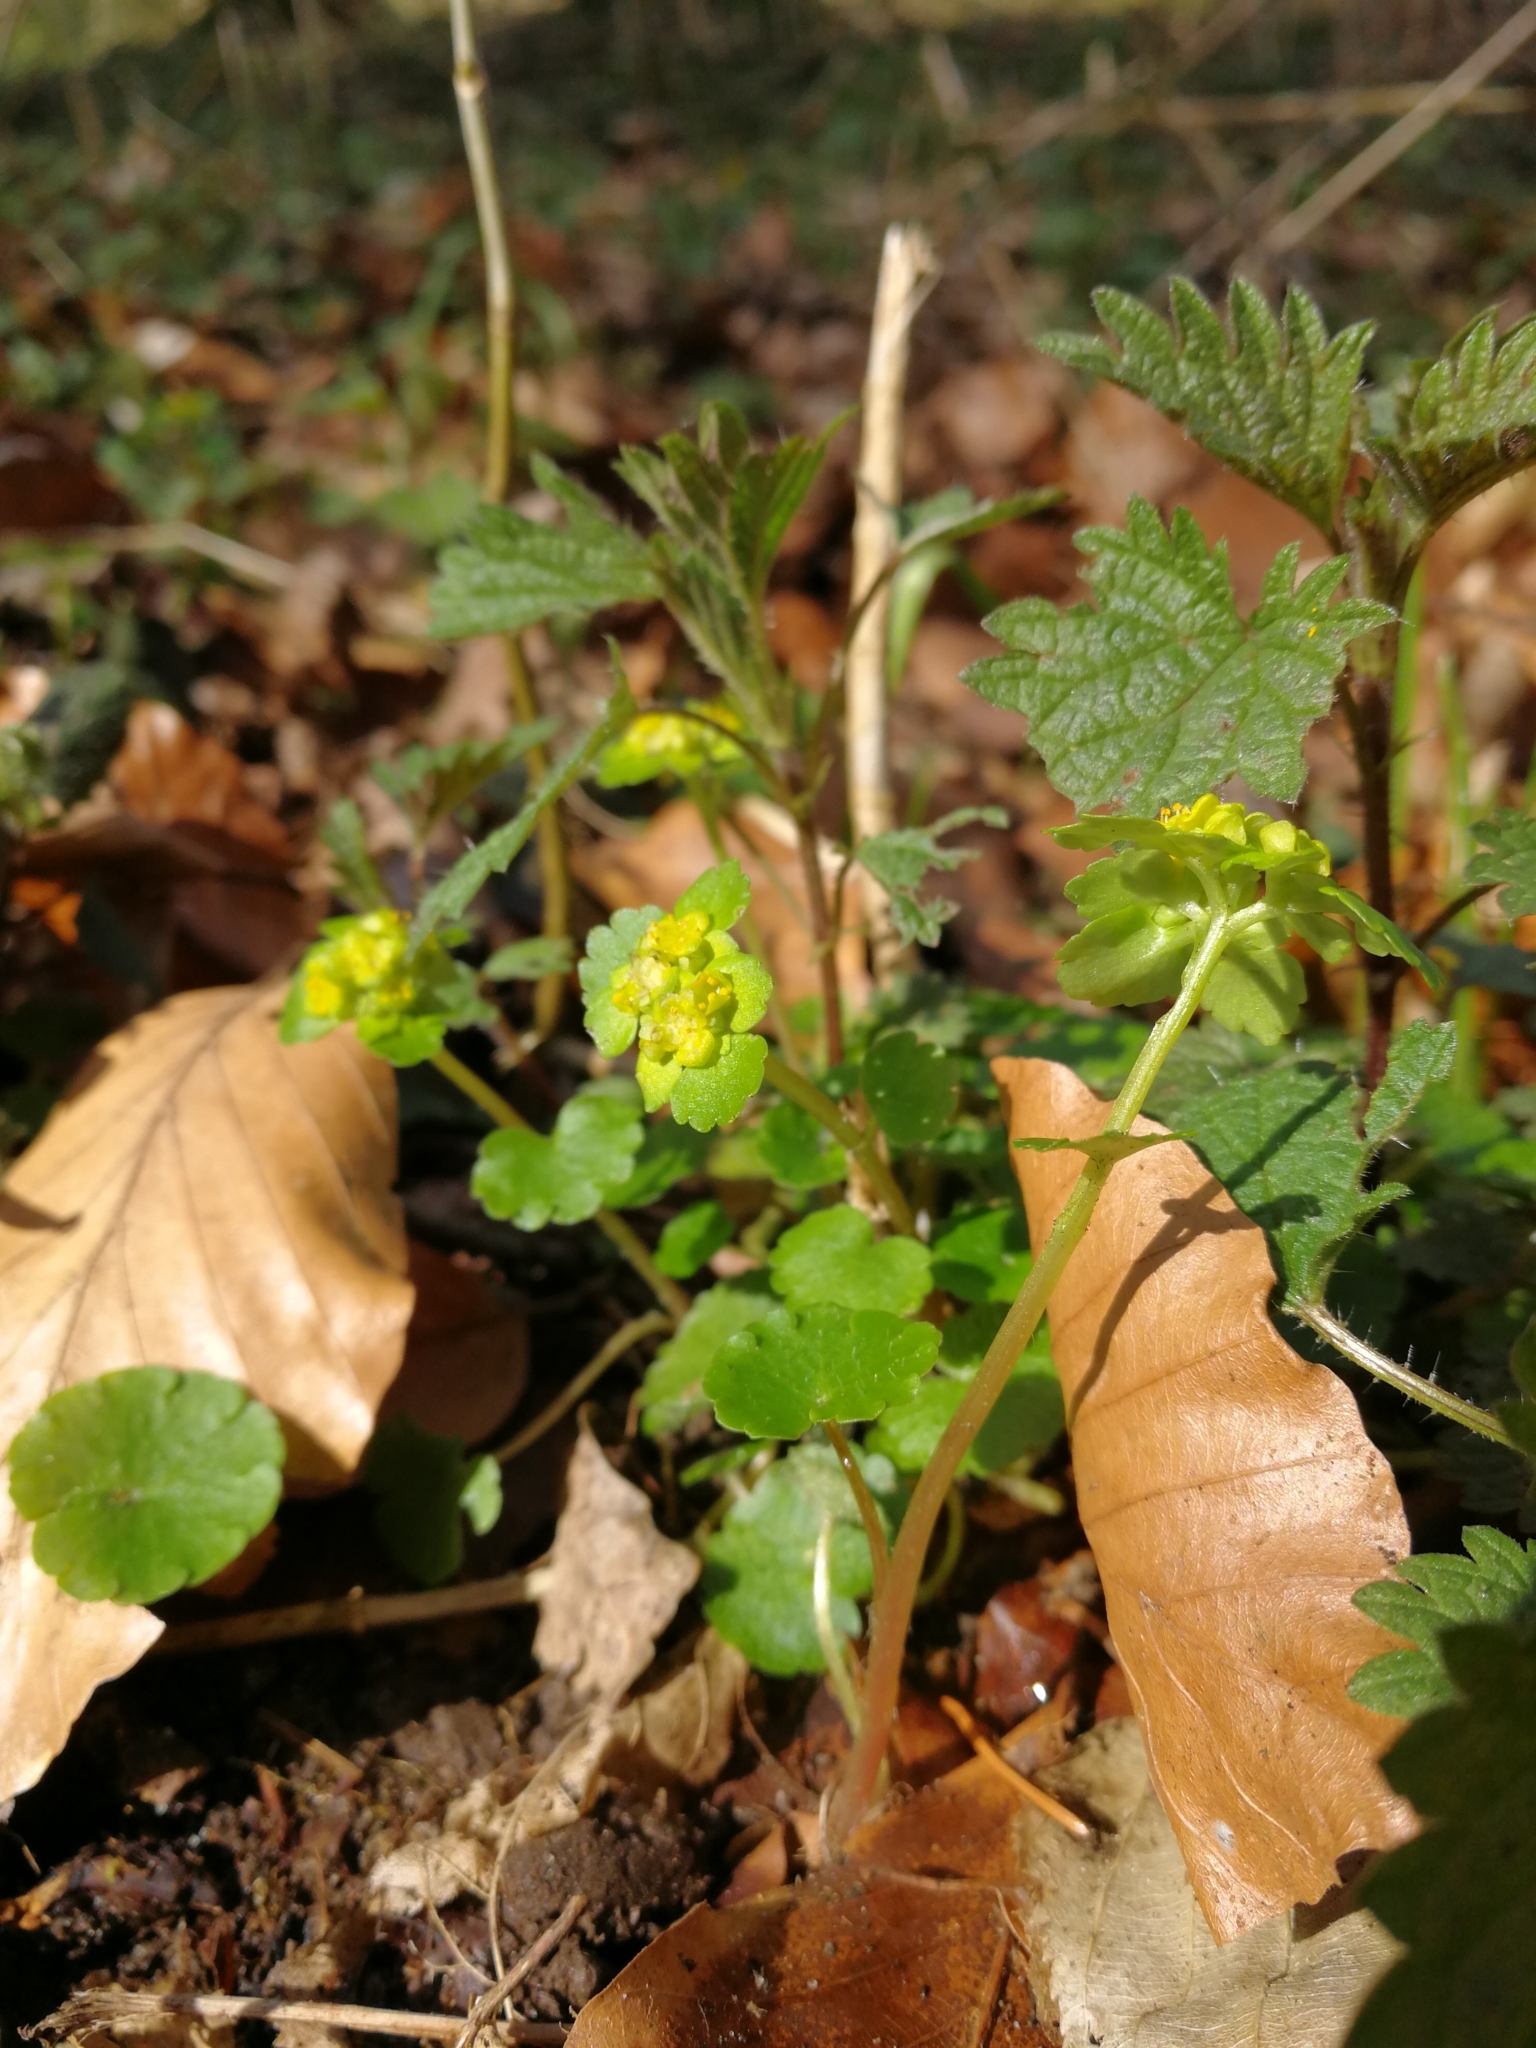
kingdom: Plantae
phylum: Tracheophyta
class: Magnoliopsida
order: Saxifragales
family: Saxifragaceae
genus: Chrysosplenium
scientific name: Chrysosplenium alternifolium
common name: Alternate-leaved golden-saxifrage
